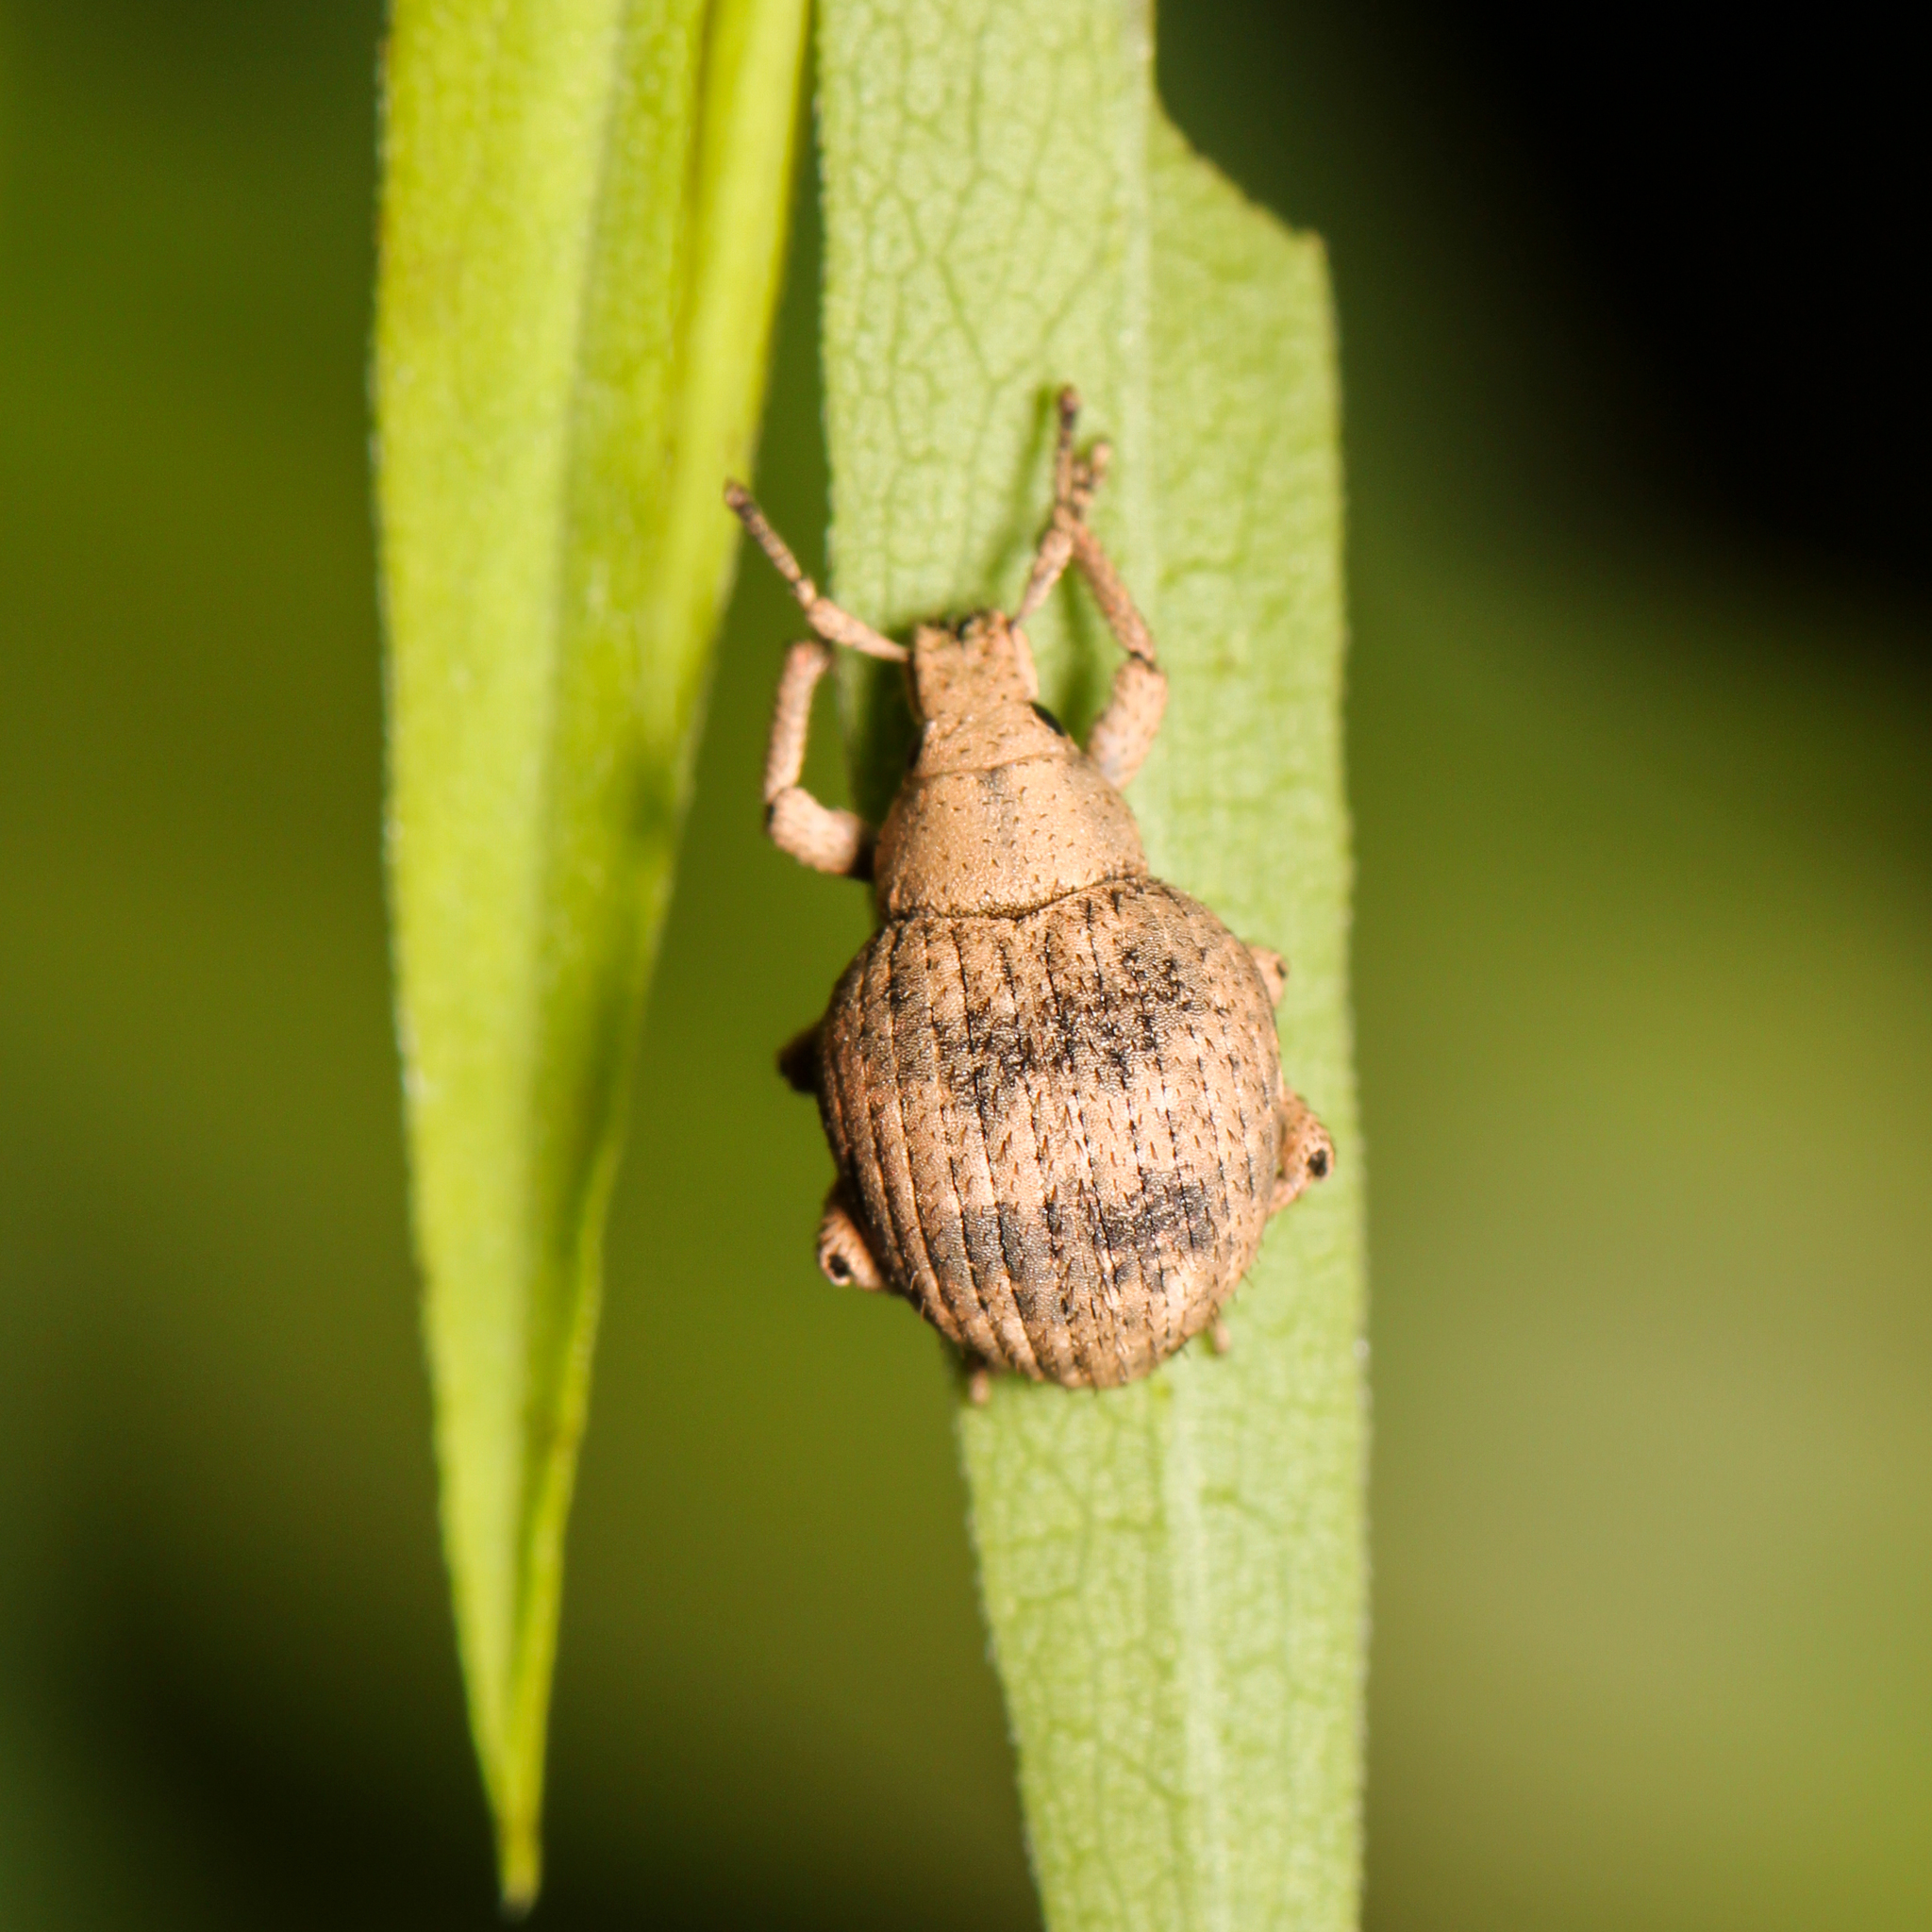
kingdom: Animalia
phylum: Arthropoda
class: Insecta
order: Coleoptera
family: Curculionidae
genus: Pseudocneorhinus
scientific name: Pseudocneorhinus bifasciatus
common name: Two-banded japanese weevil
